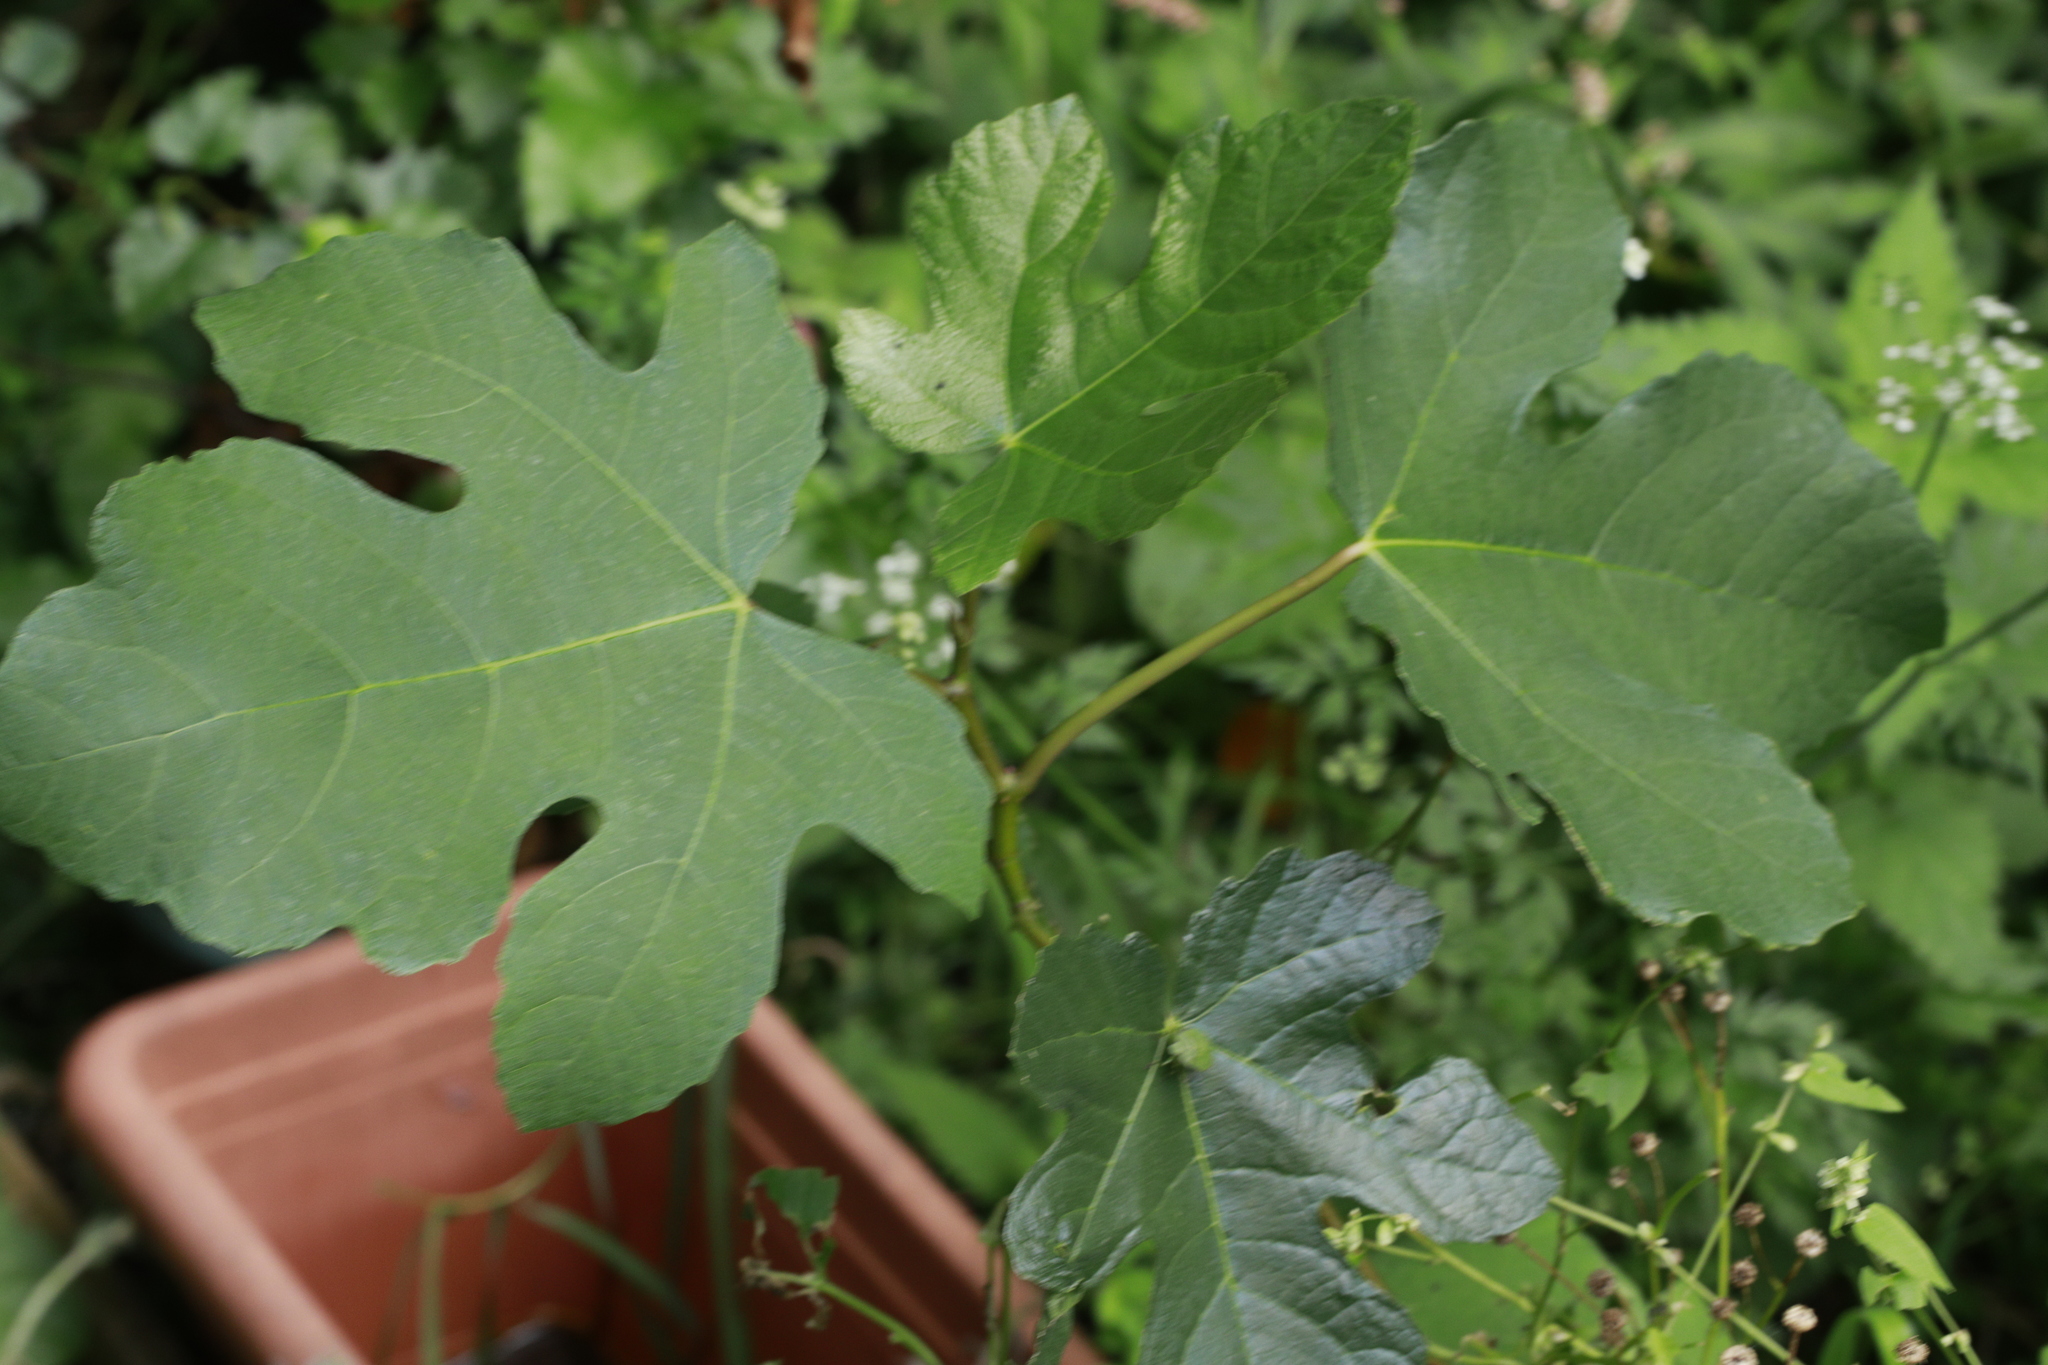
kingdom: Plantae
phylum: Tracheophyta
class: Magnoliopsida
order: Rosales
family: Moraceae
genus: Ficus
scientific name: Ficus carica
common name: Fig
